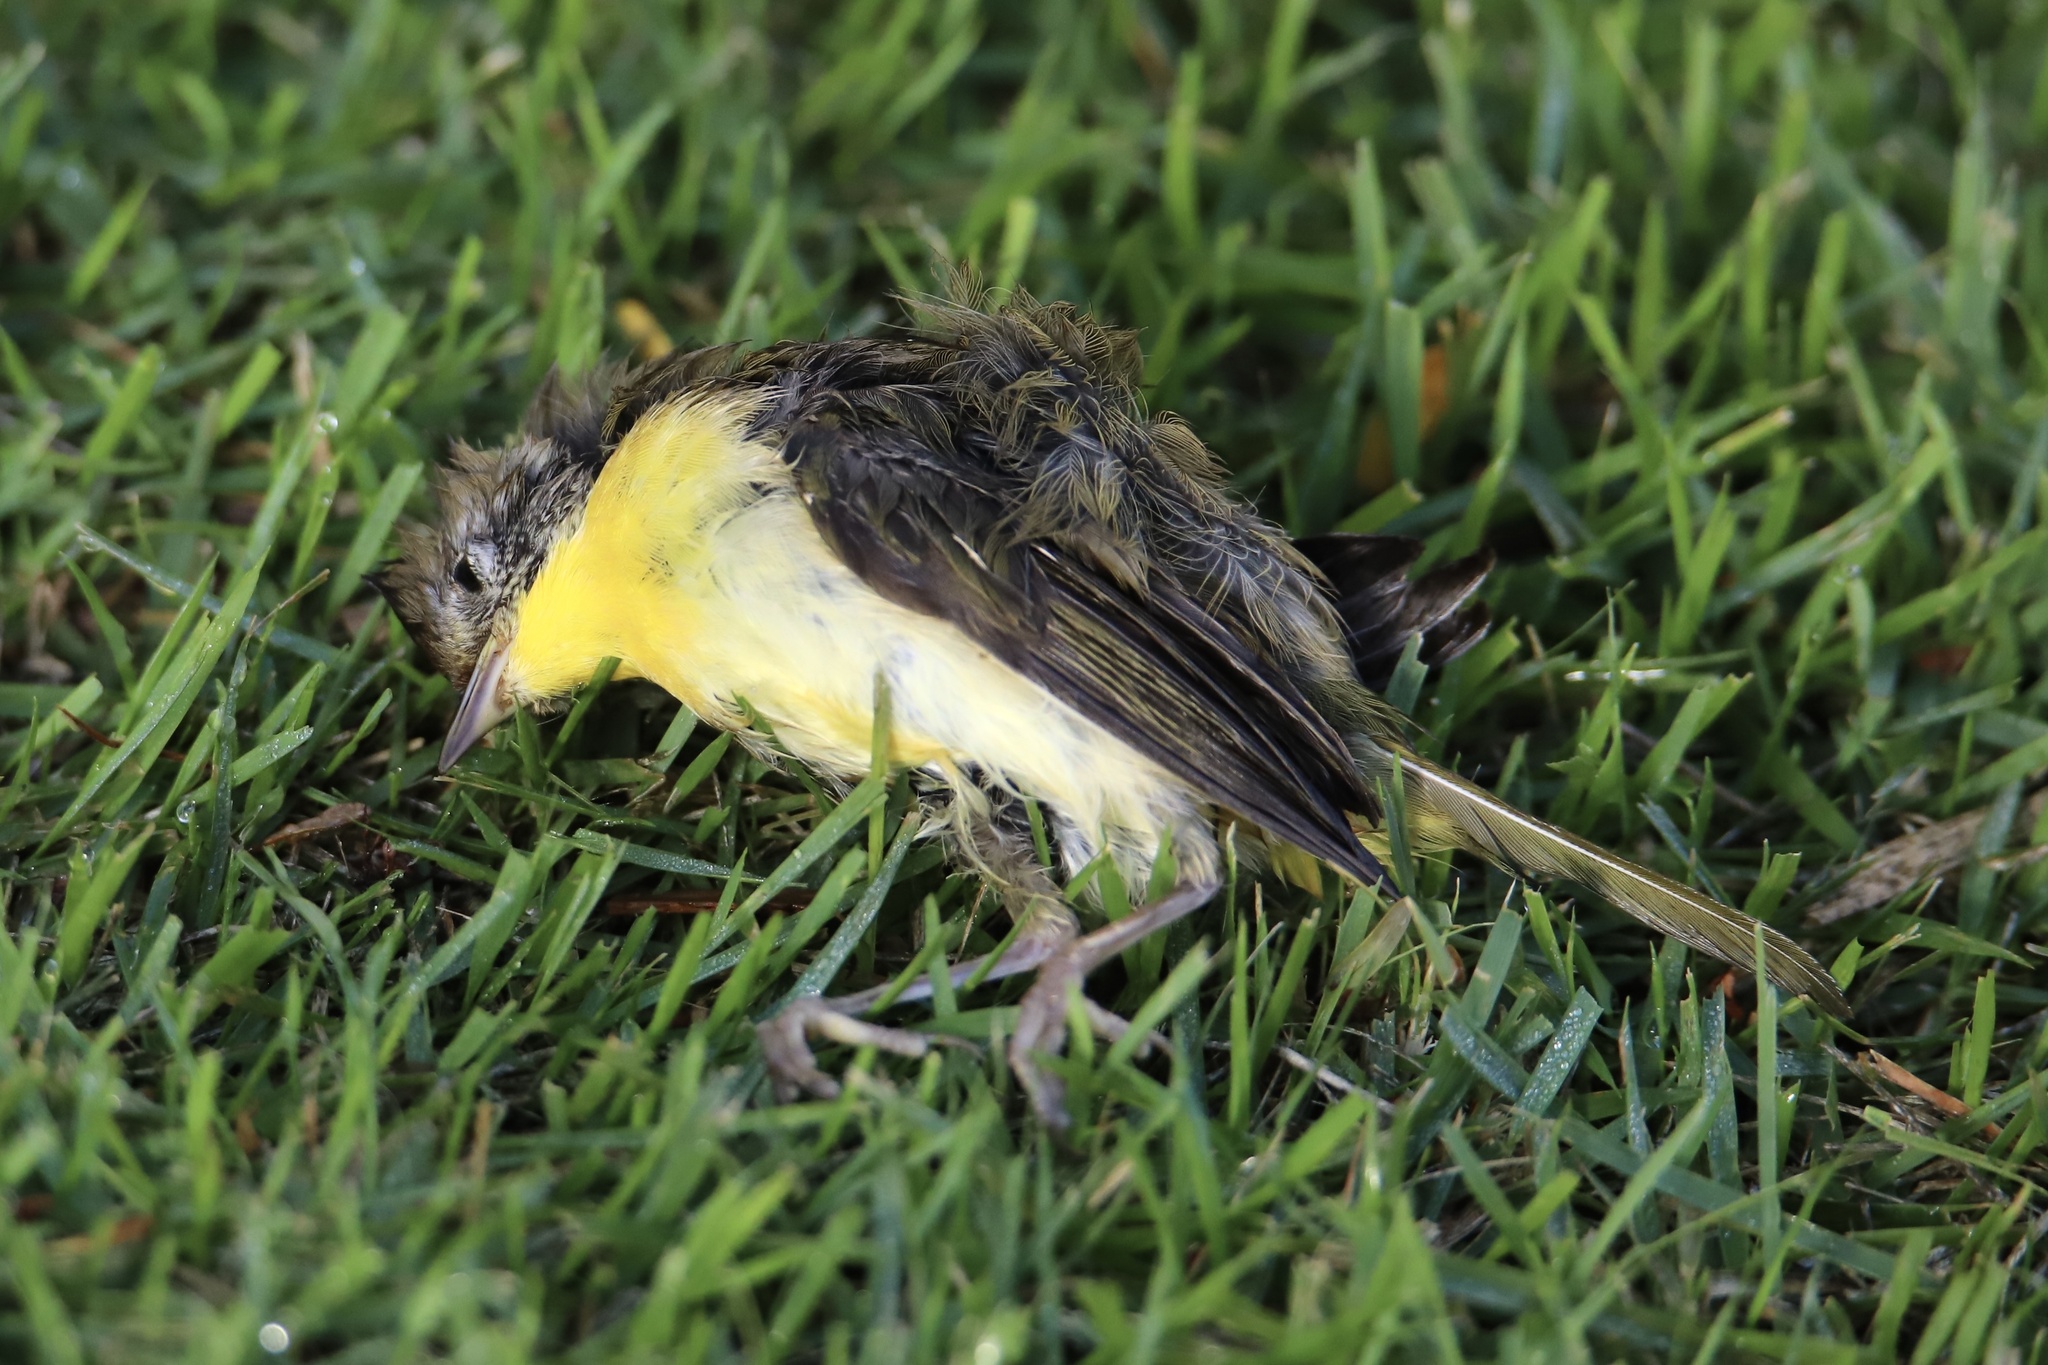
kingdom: Animalia
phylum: Chordata
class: Aves
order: Passeriformes
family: Parulidae
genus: Geothlypis
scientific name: Geothlypis trichas
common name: Common yellowthroat
